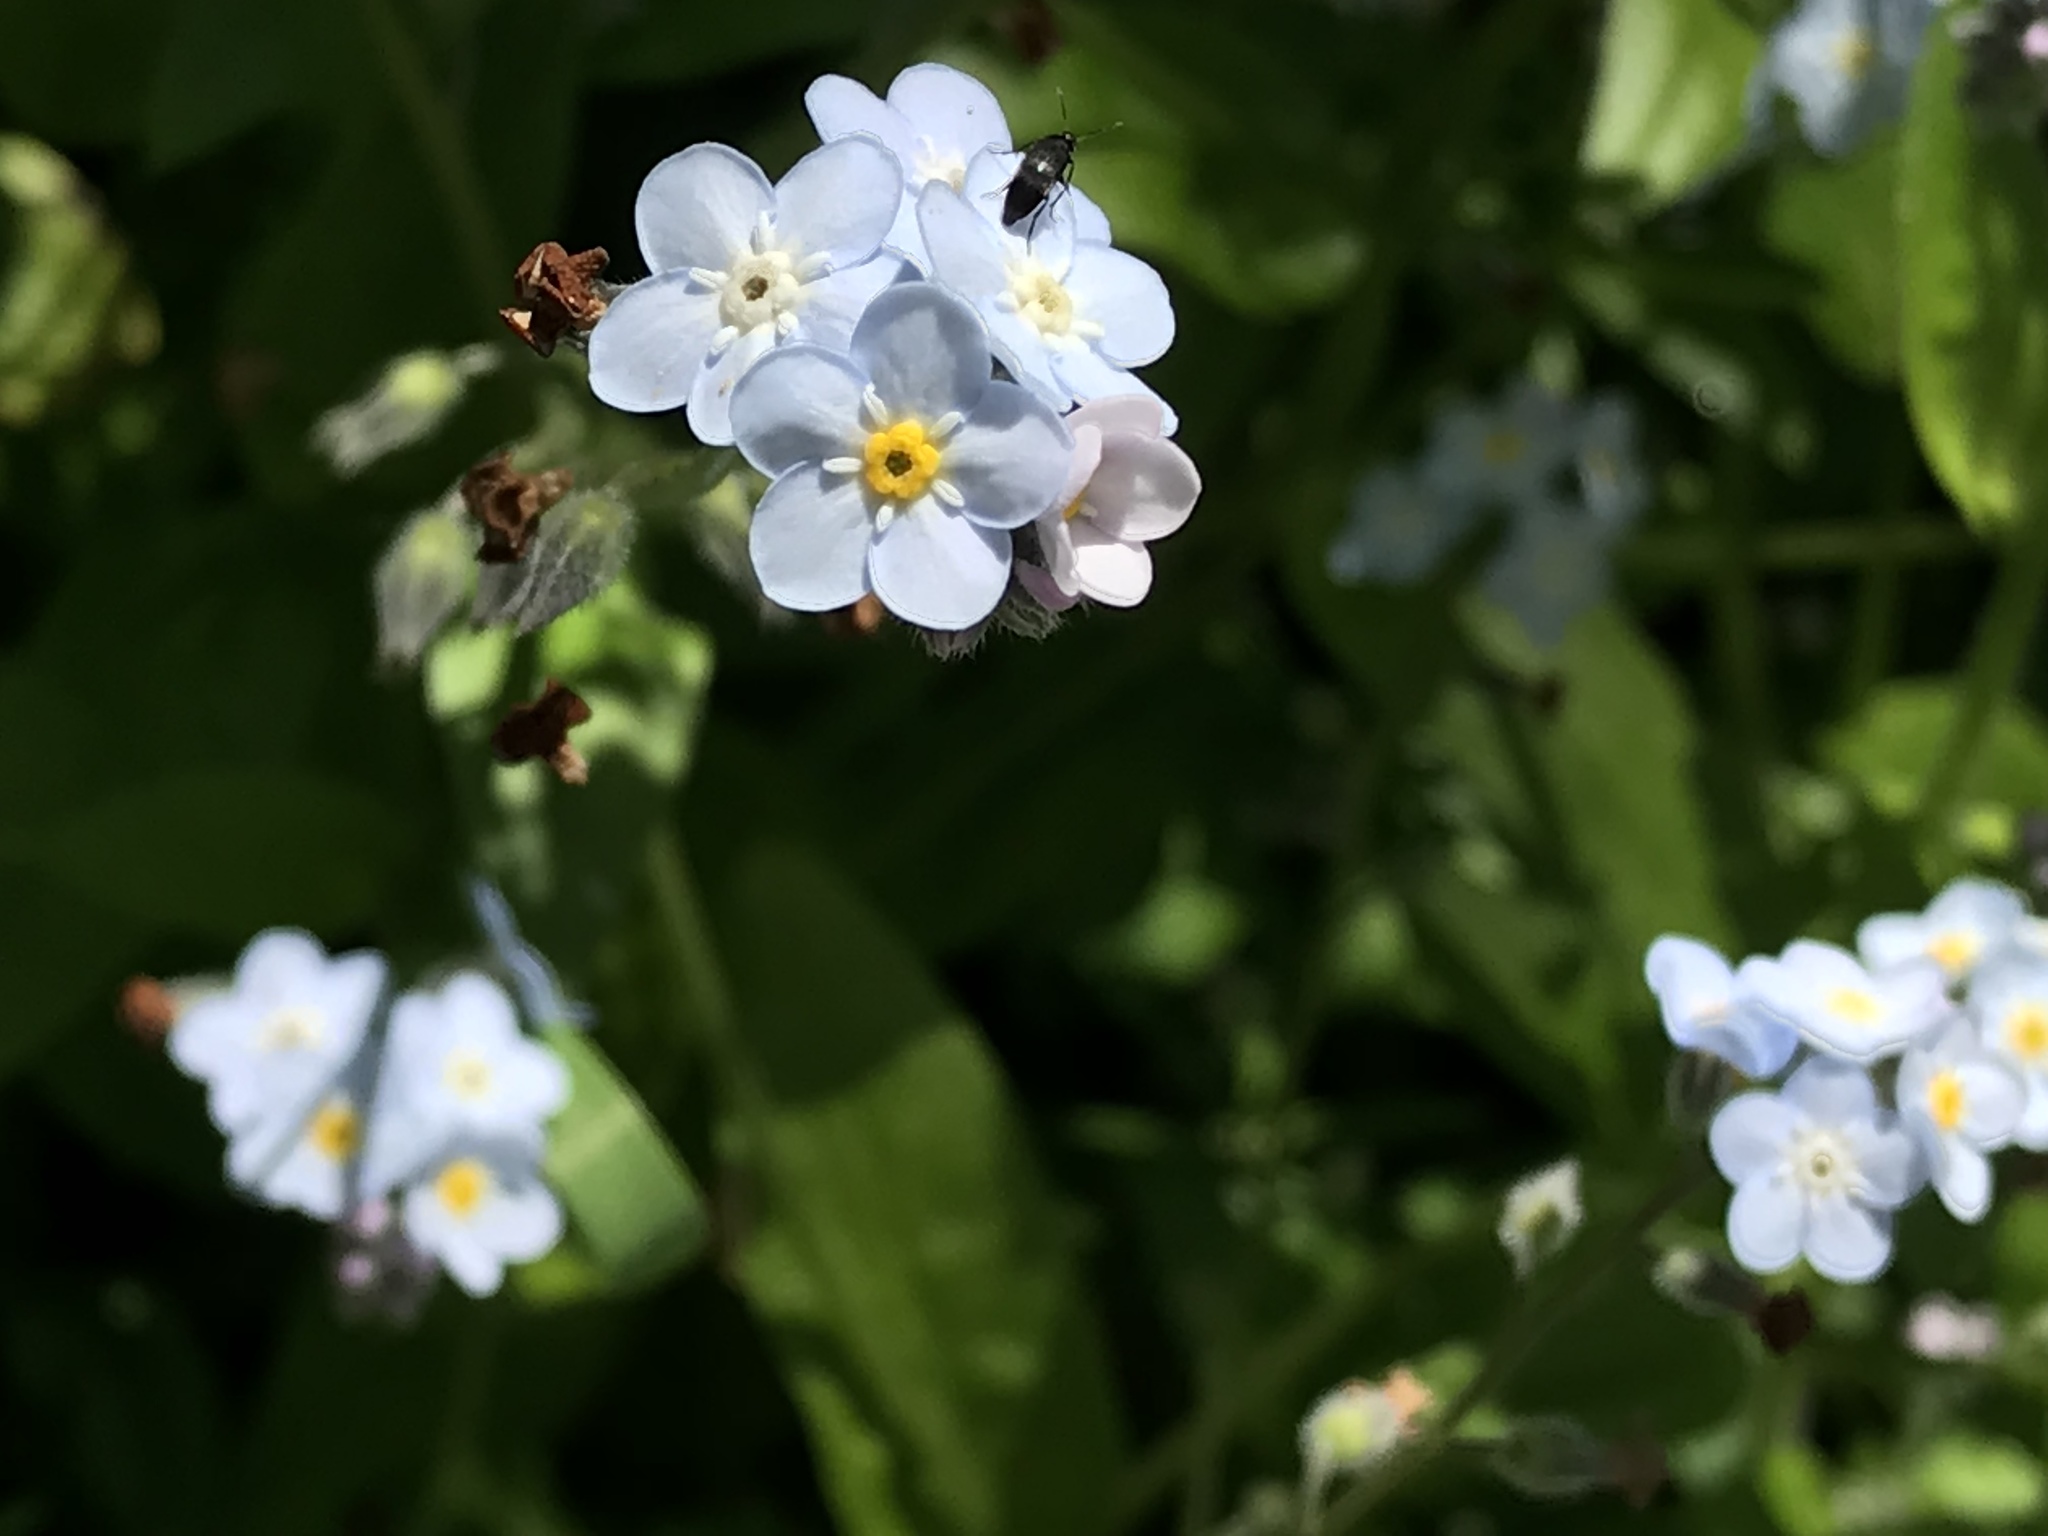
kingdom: Plantae
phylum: Tracheophyta
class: Magnoliopsida
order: Boraginales
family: Boraginaceae
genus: Myosotis
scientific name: Myosotis latifolia
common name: Broadleaf forget-me-not
